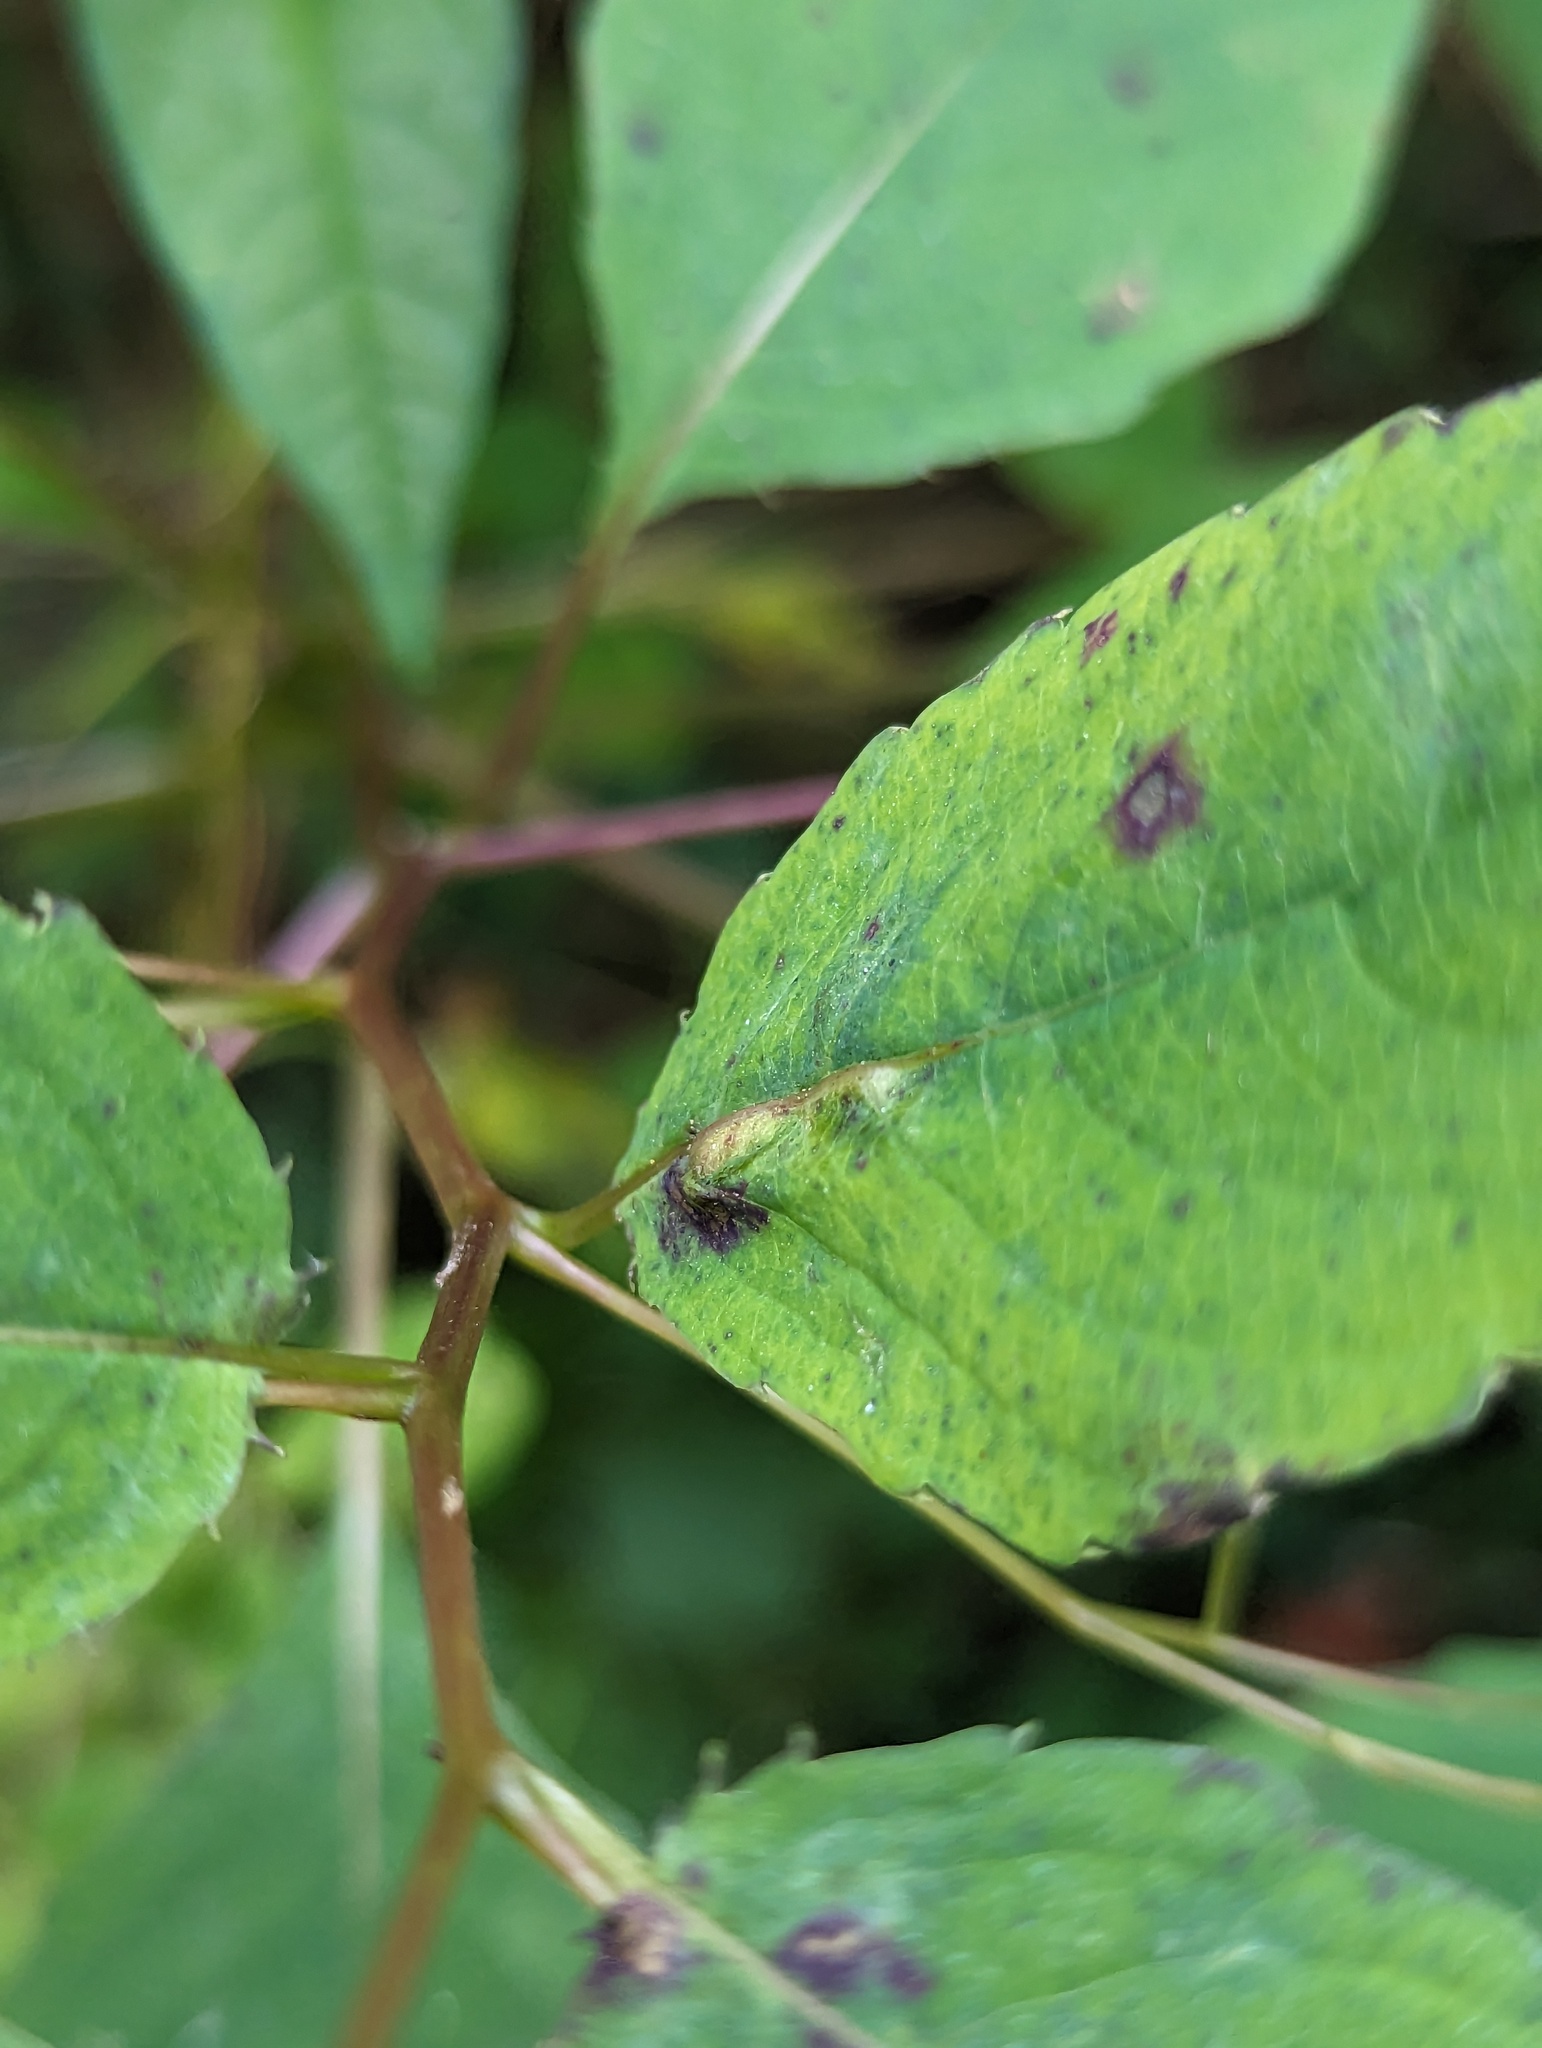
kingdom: Animalia
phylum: Arthropoda
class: Insecta
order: Diptera
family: Cecidomyiidae
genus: Neolasioptera
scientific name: Neolasioptera impatientifolia
